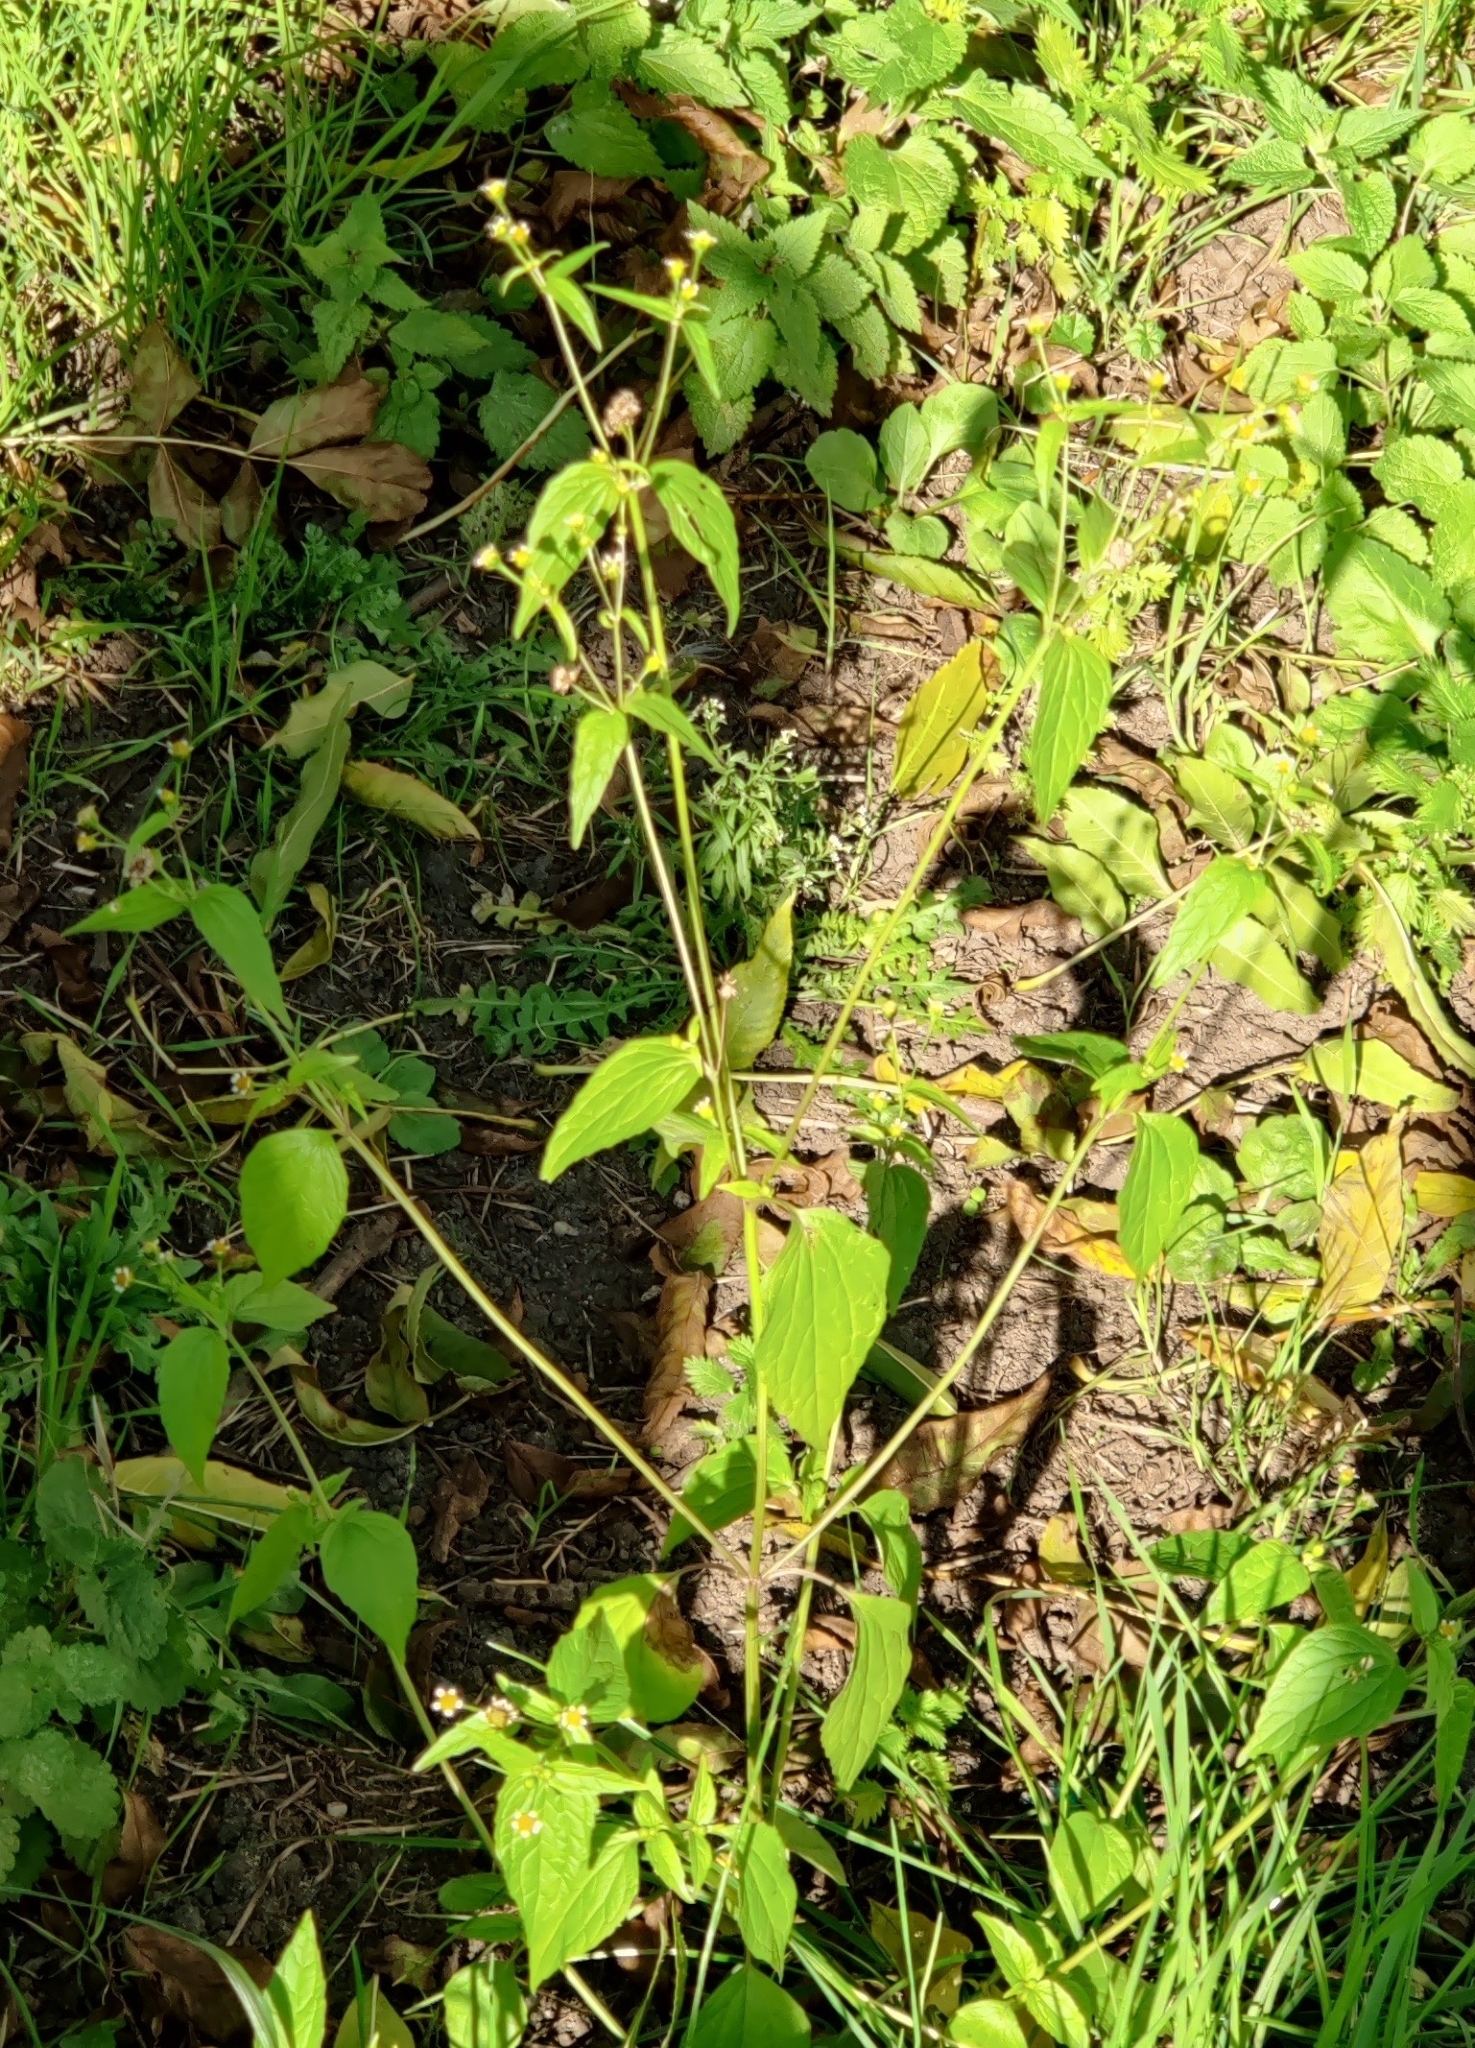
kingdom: Plantae
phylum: Tracheophyta
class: Magnoliopsida
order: Asterales
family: Asteraceae
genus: Galinsoga
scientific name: Galinsoga quadriradiata
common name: Shaggy soldier
